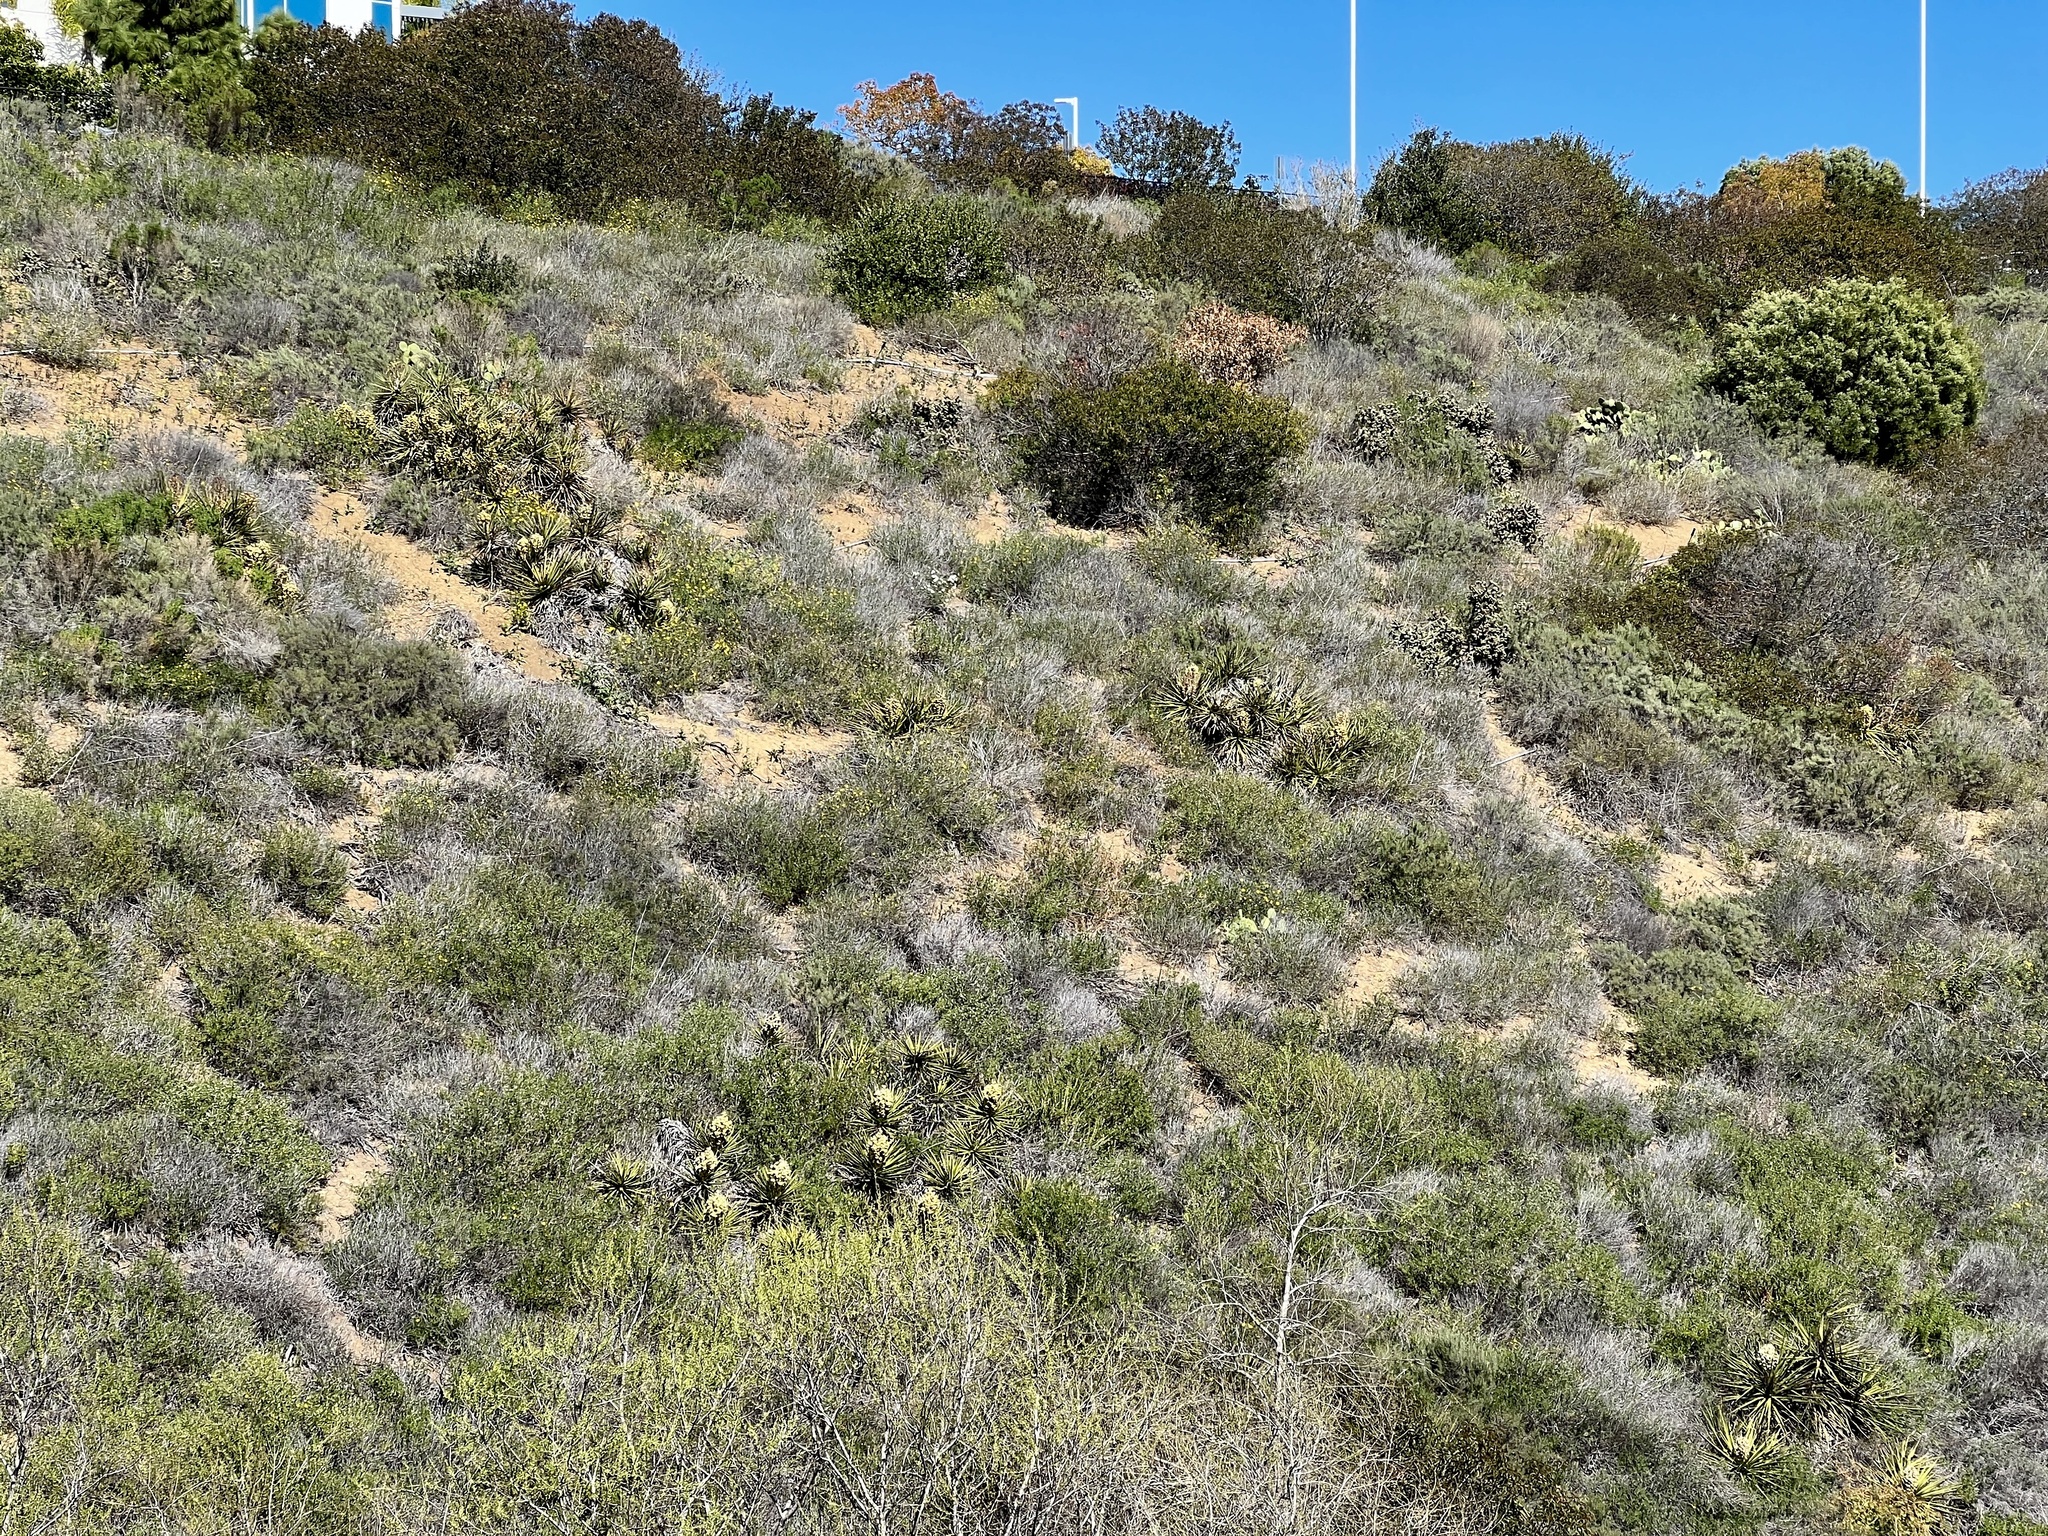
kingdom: Plantae
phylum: Tracheophyta
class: Liliopsida
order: Asparagales
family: Asparagaceae
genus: Yucca
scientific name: Yucca schidigera
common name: Mojave yucca
